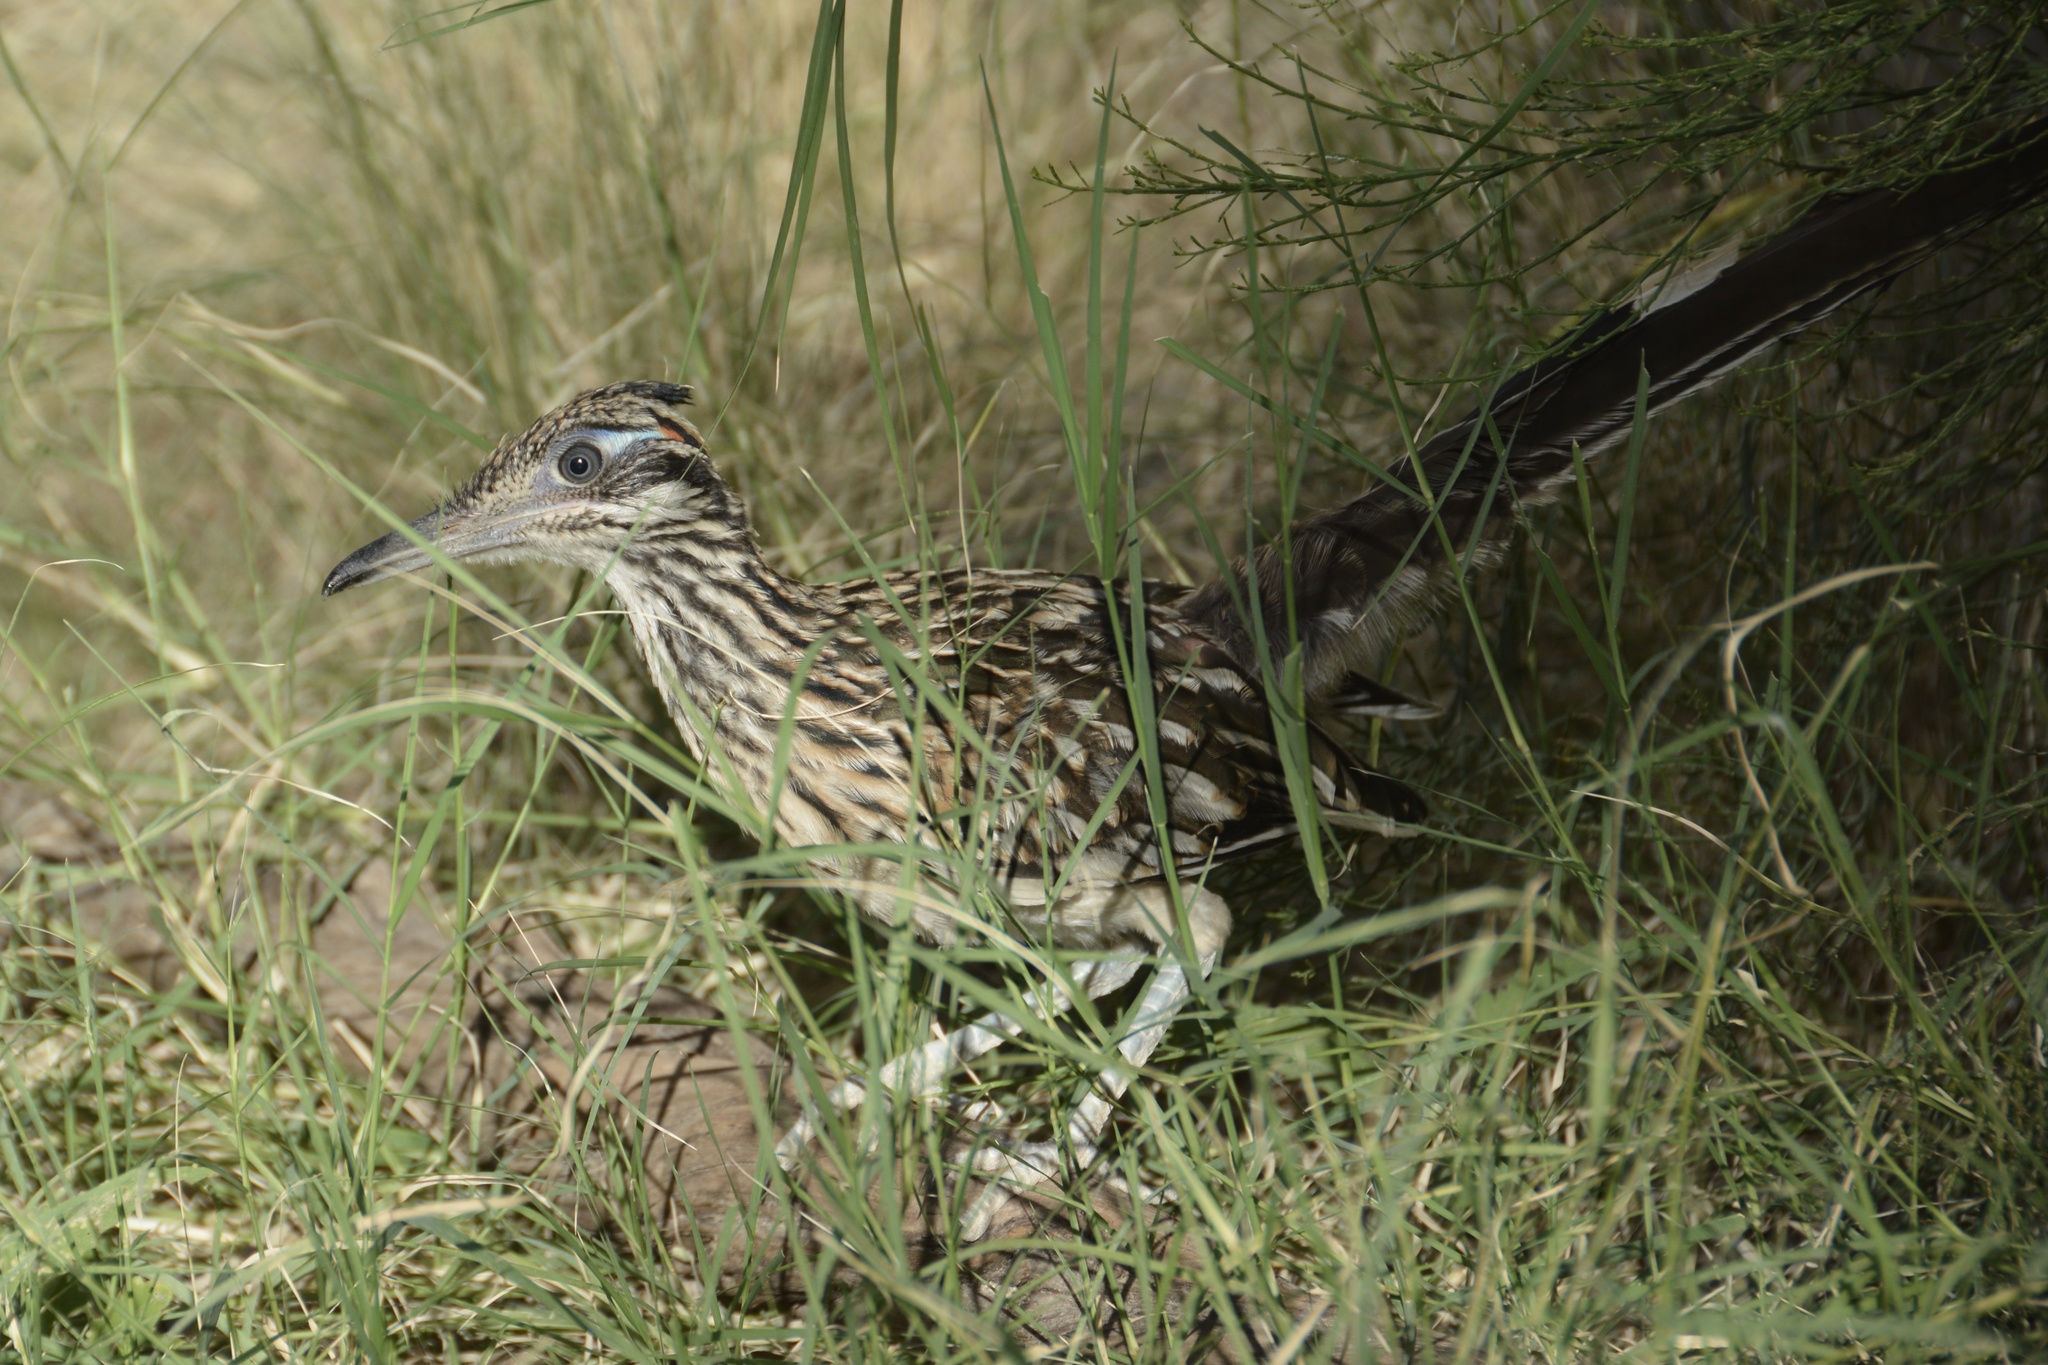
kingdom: Animalia
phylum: Chordata
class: Aves
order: Cuculiformes
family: Cuculidae
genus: Geococcyx
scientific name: Geococcyx californianus
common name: Greater roadrunner
